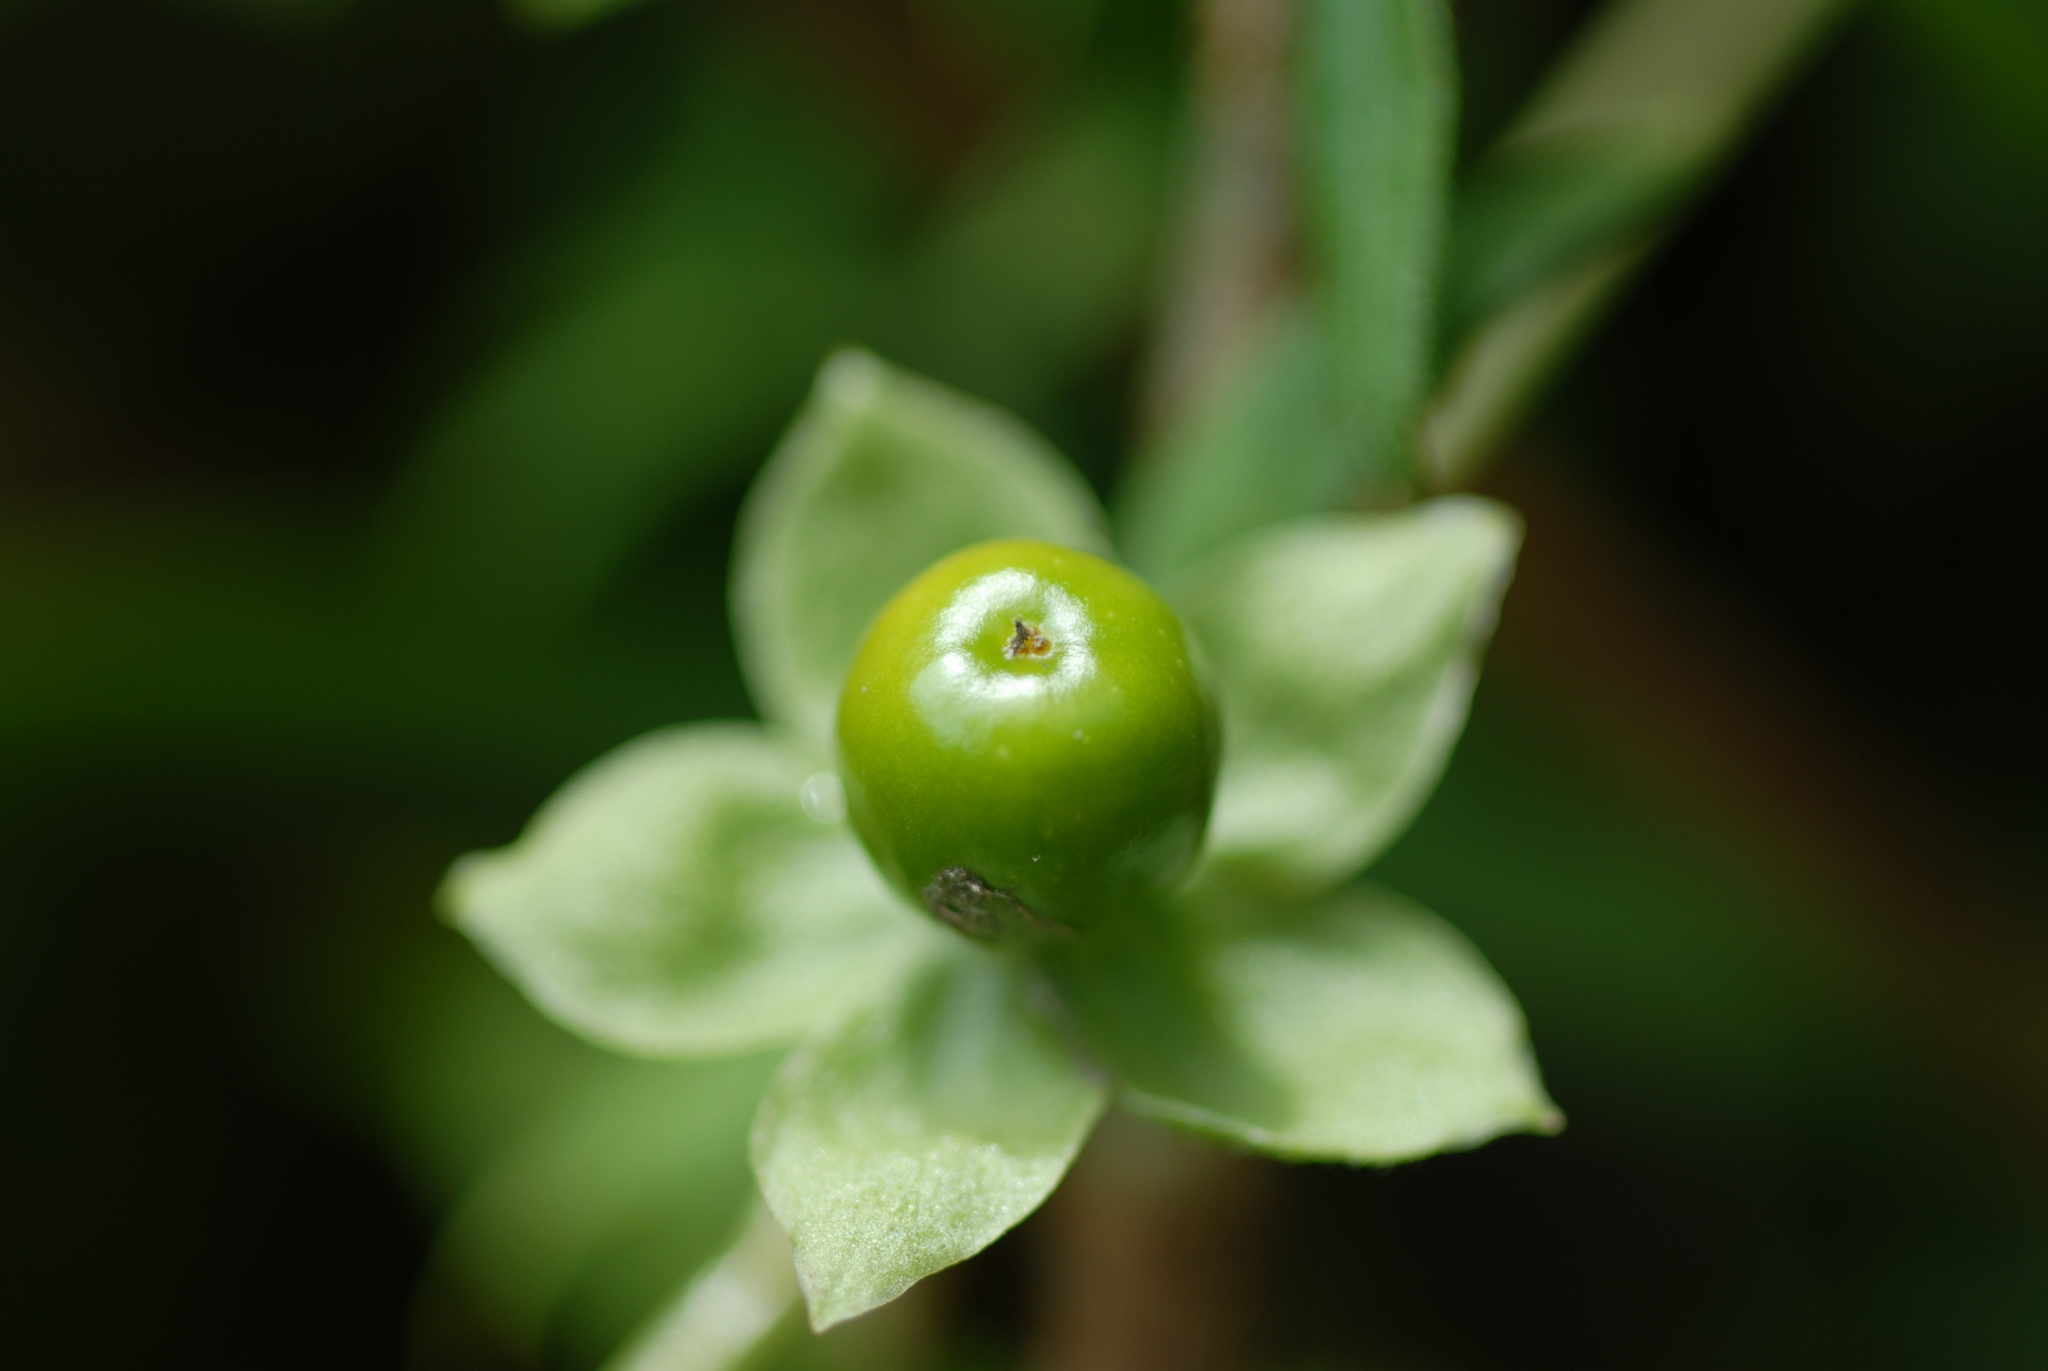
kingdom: Plantae
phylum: Tracheophyta
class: Magnoliopsida
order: Caryophyllales
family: Caryophyllaceae
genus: Silene
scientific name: Silene baccifera
